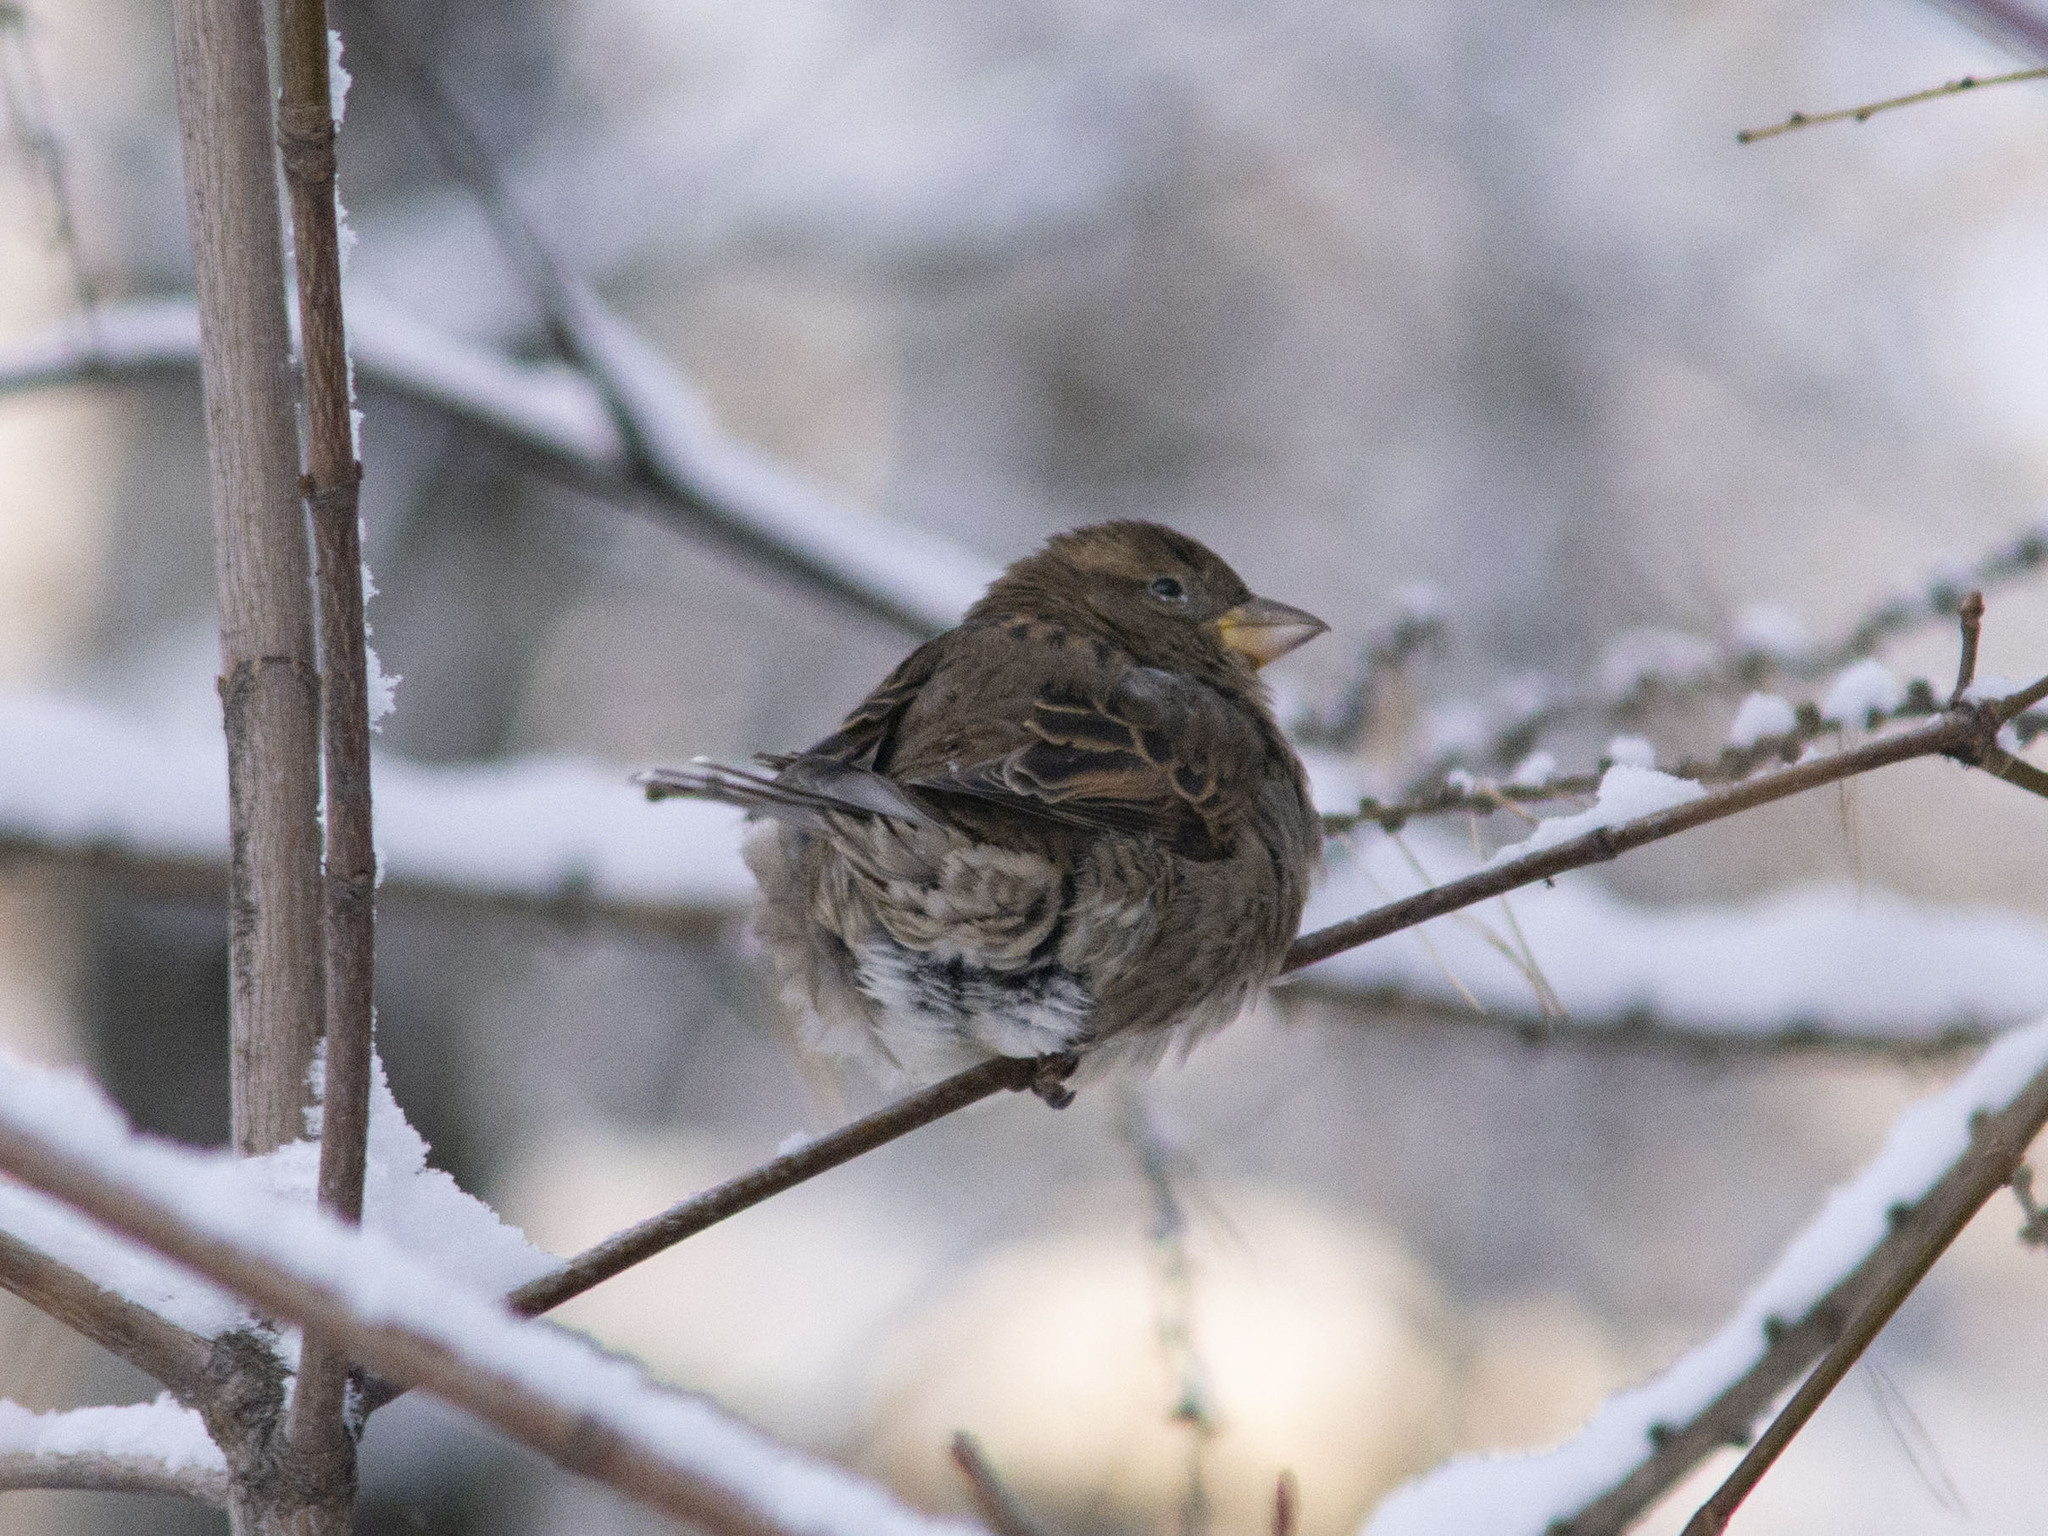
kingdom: Animalia
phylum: Chordata
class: Aves
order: Passeriformes
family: Passeridae
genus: Passer
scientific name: Passer domesticus
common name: House sparrow
